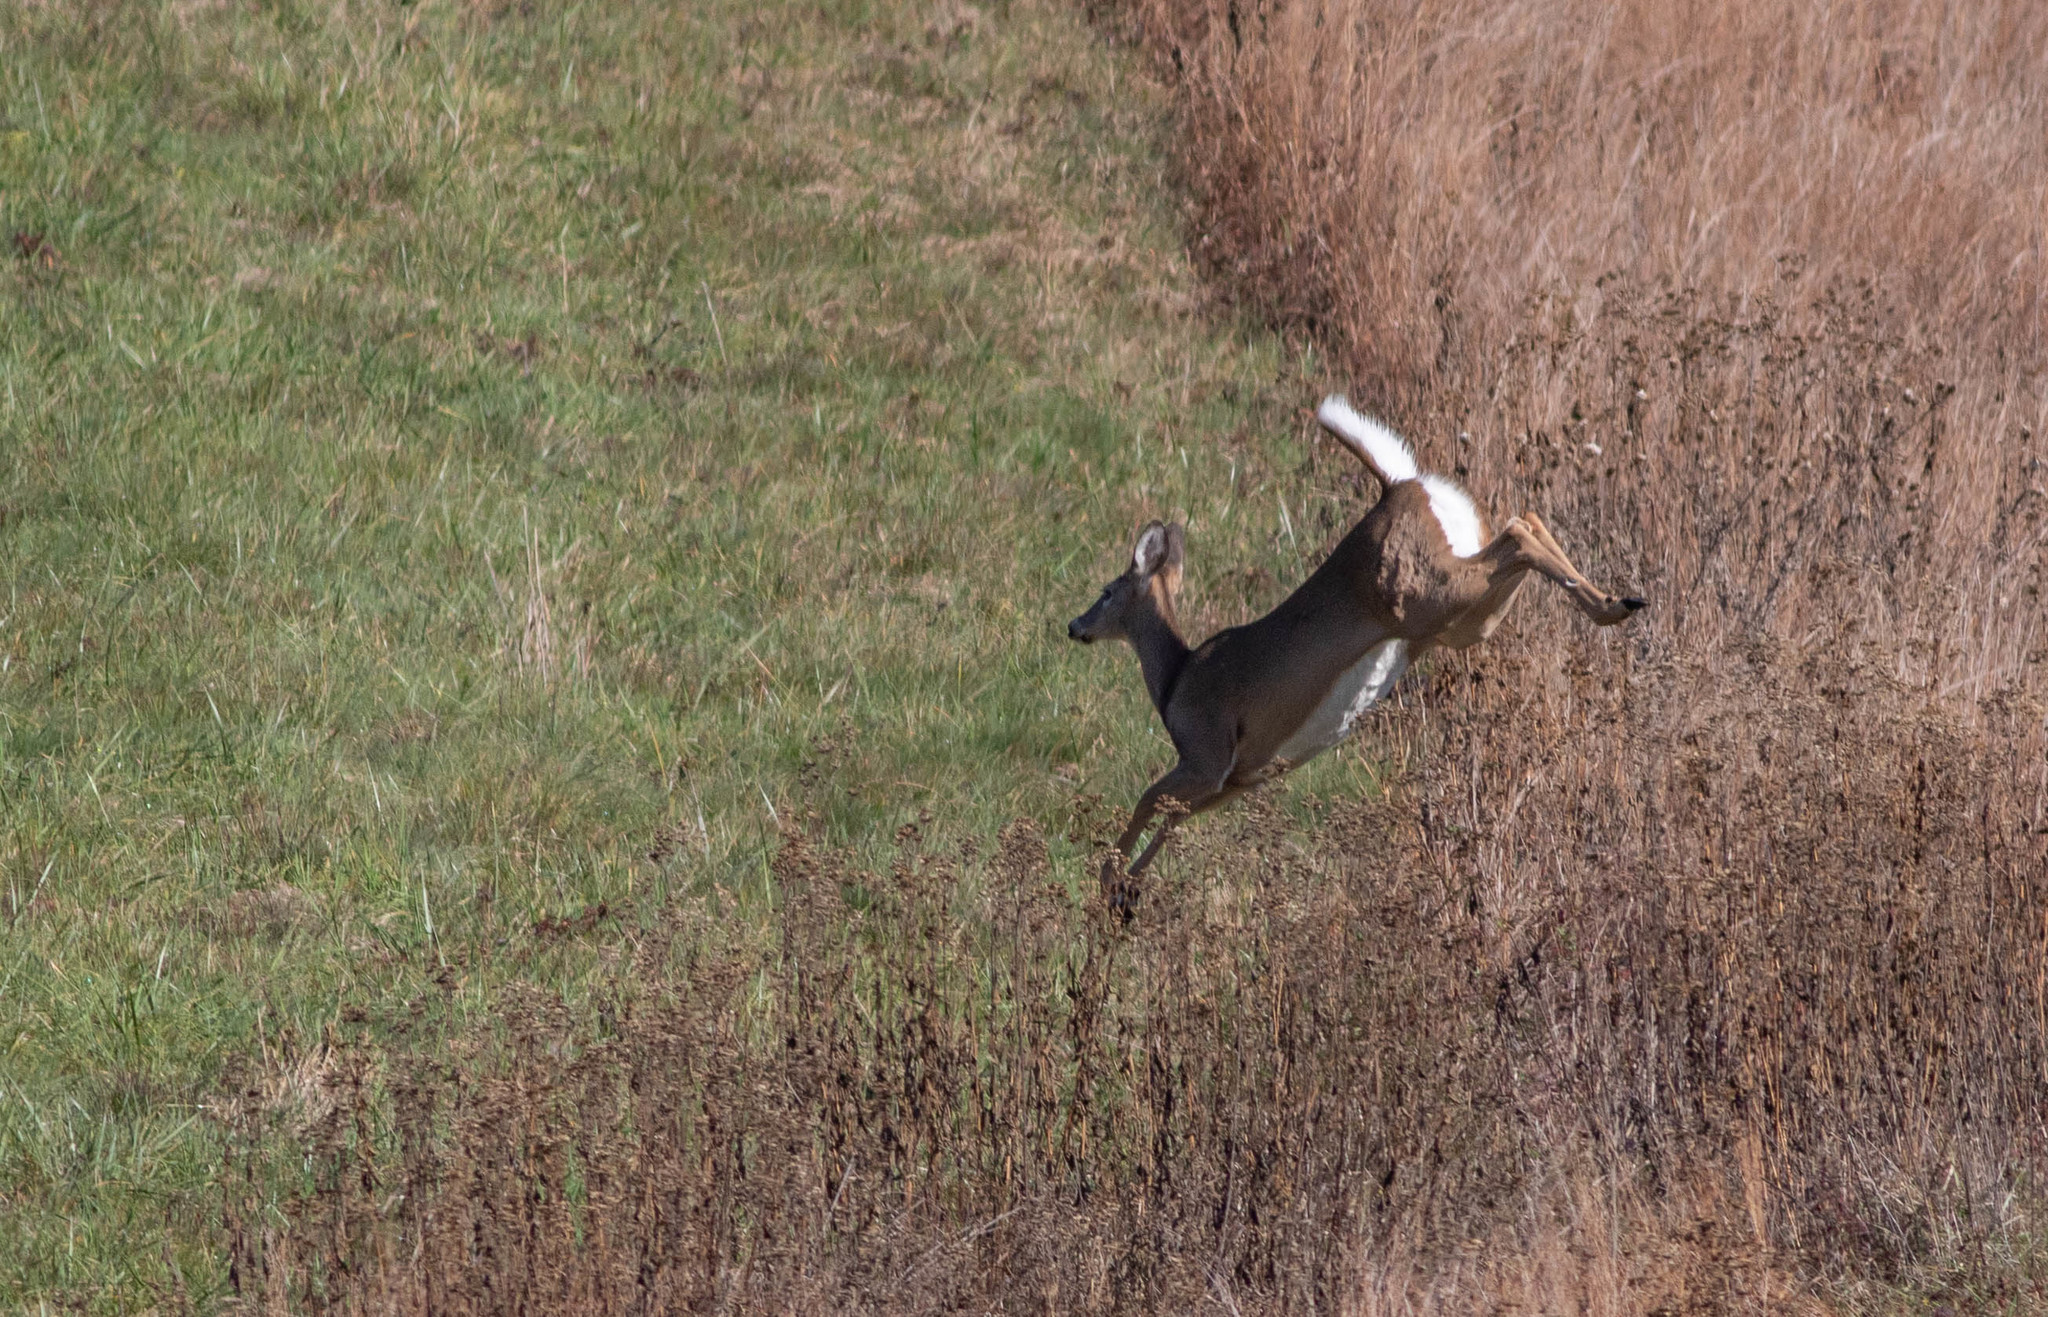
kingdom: Animalia
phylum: Chordata
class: Mammalia
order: Artiodactyla
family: Cervidae
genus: Odocoileus
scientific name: Odocoileus virginianus
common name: White-tailed deer
